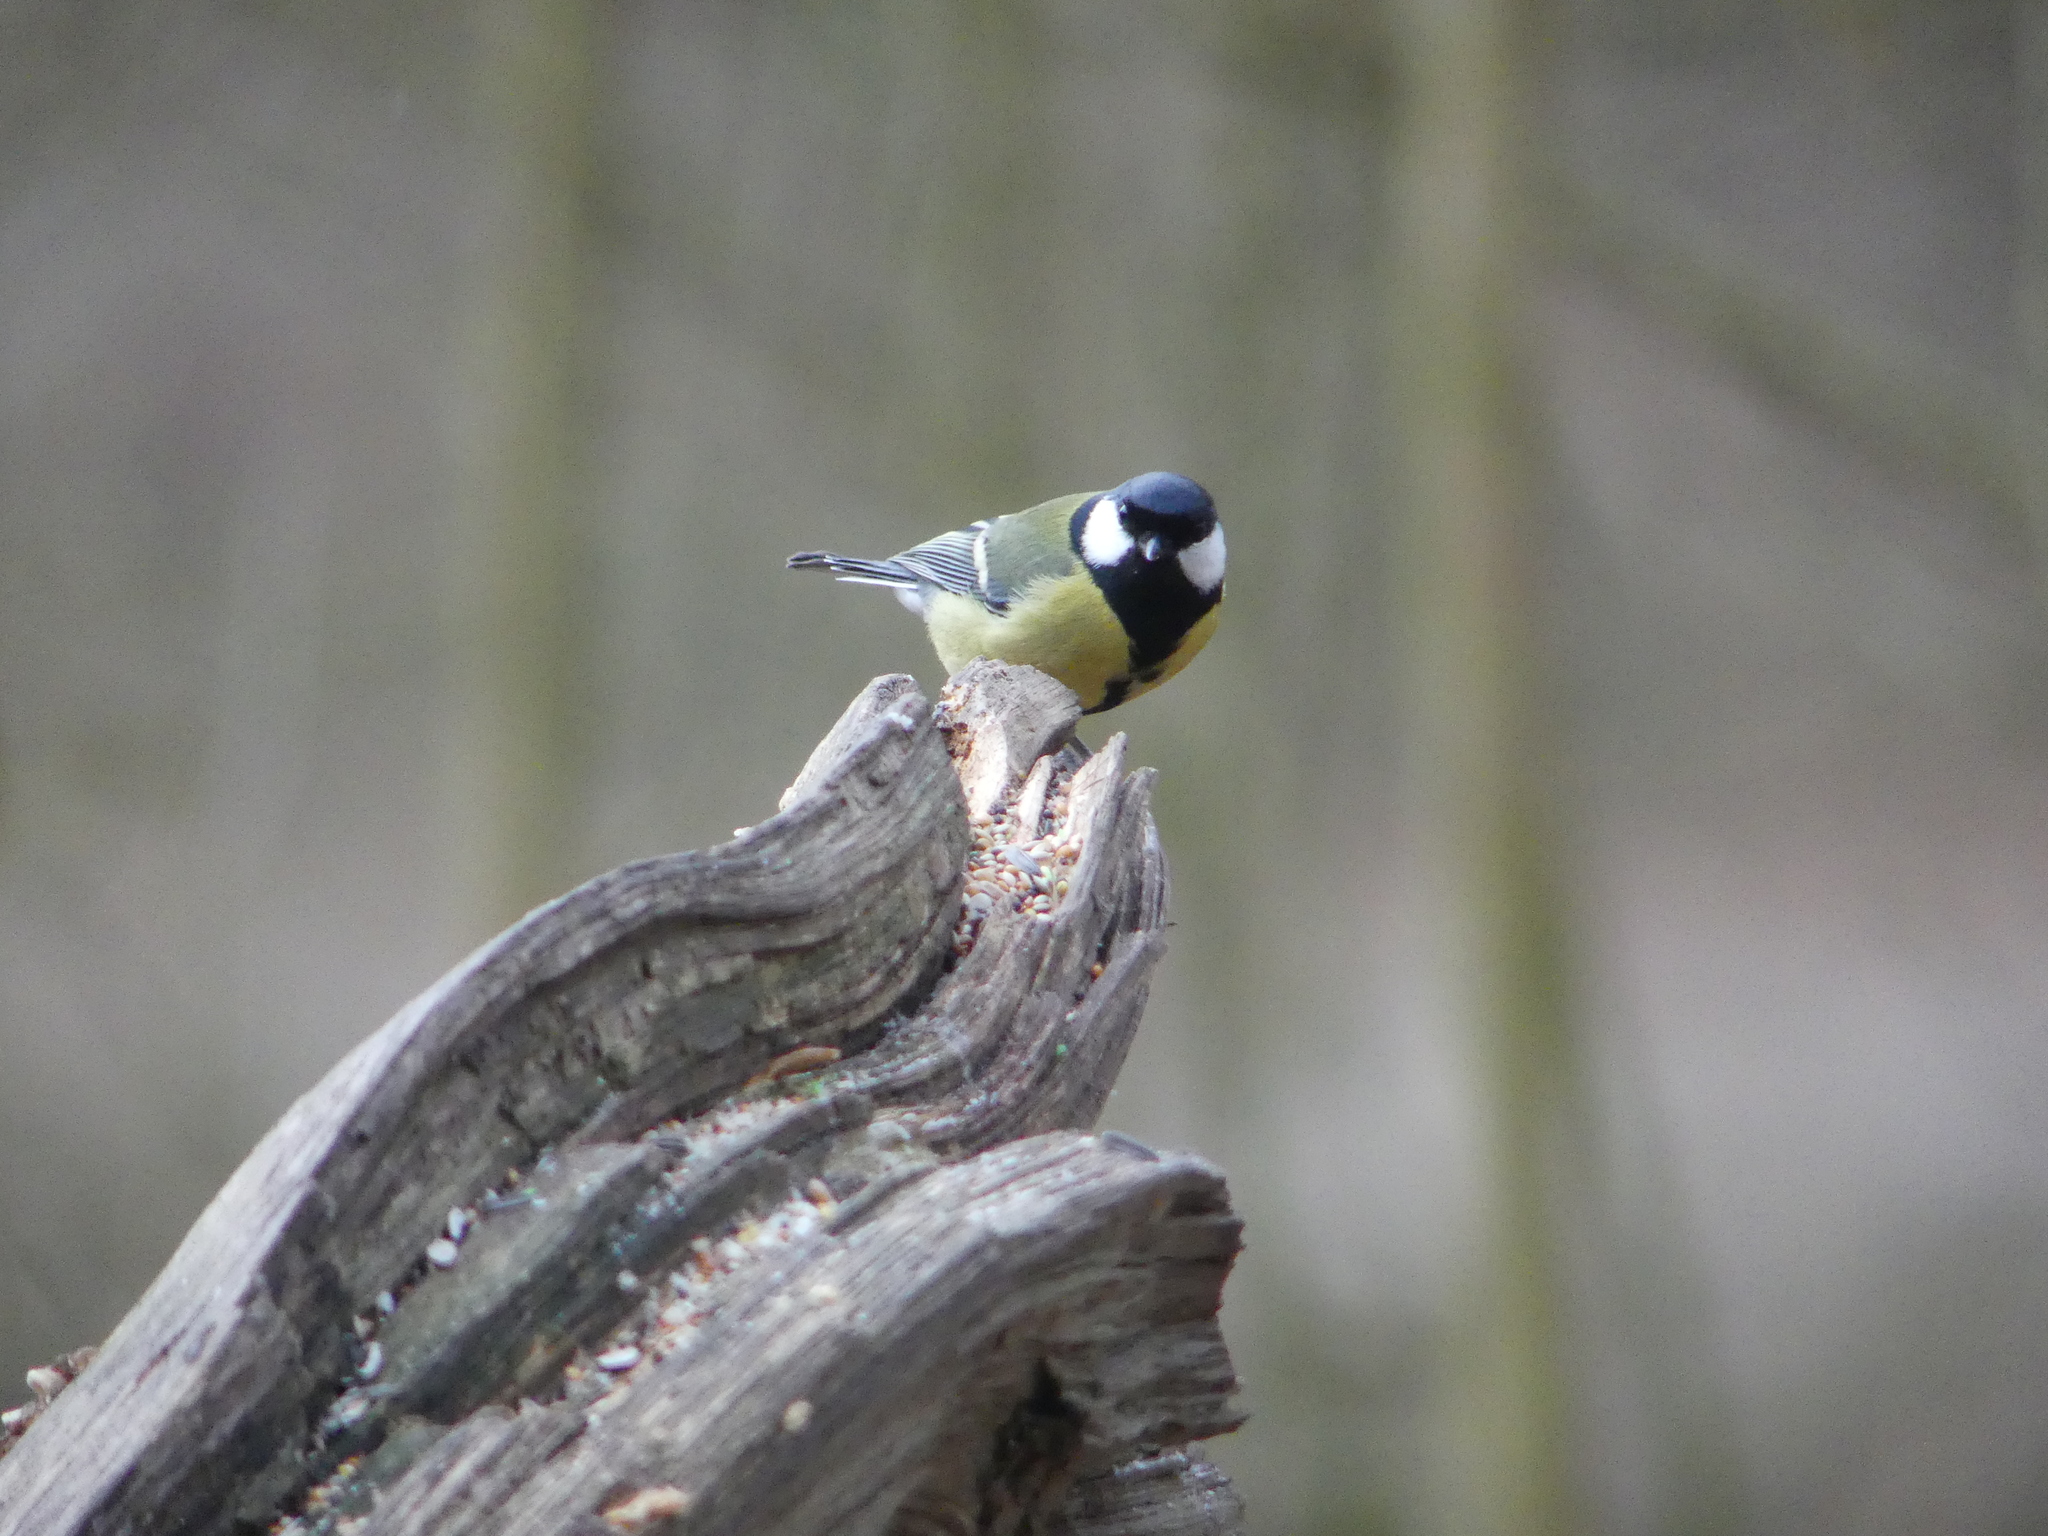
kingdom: Animalia
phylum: Chordata
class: Aves
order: Passeriformes
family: Paridae
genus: Parus
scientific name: Parus major
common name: Great tit
